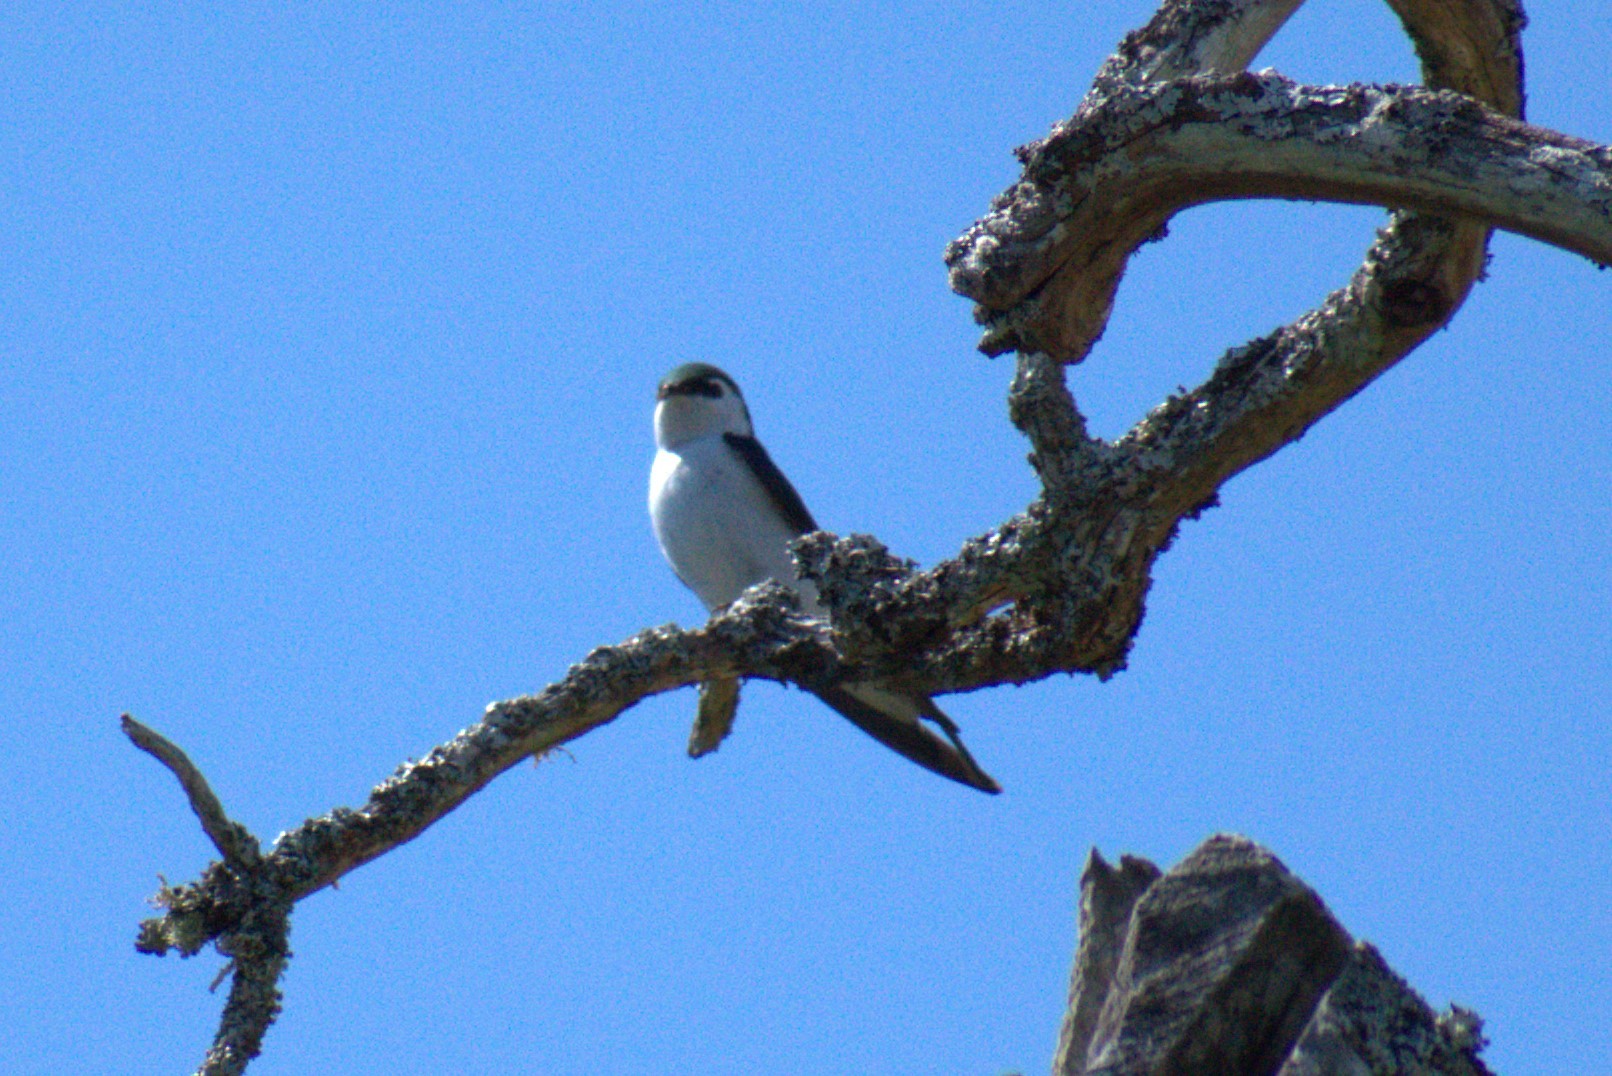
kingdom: Animalia
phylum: Chordata
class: Aves
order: Passeriformes
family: Hirundinidae
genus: Tachycineta
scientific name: Tachycineta thalassina
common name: Violet-green swallow
